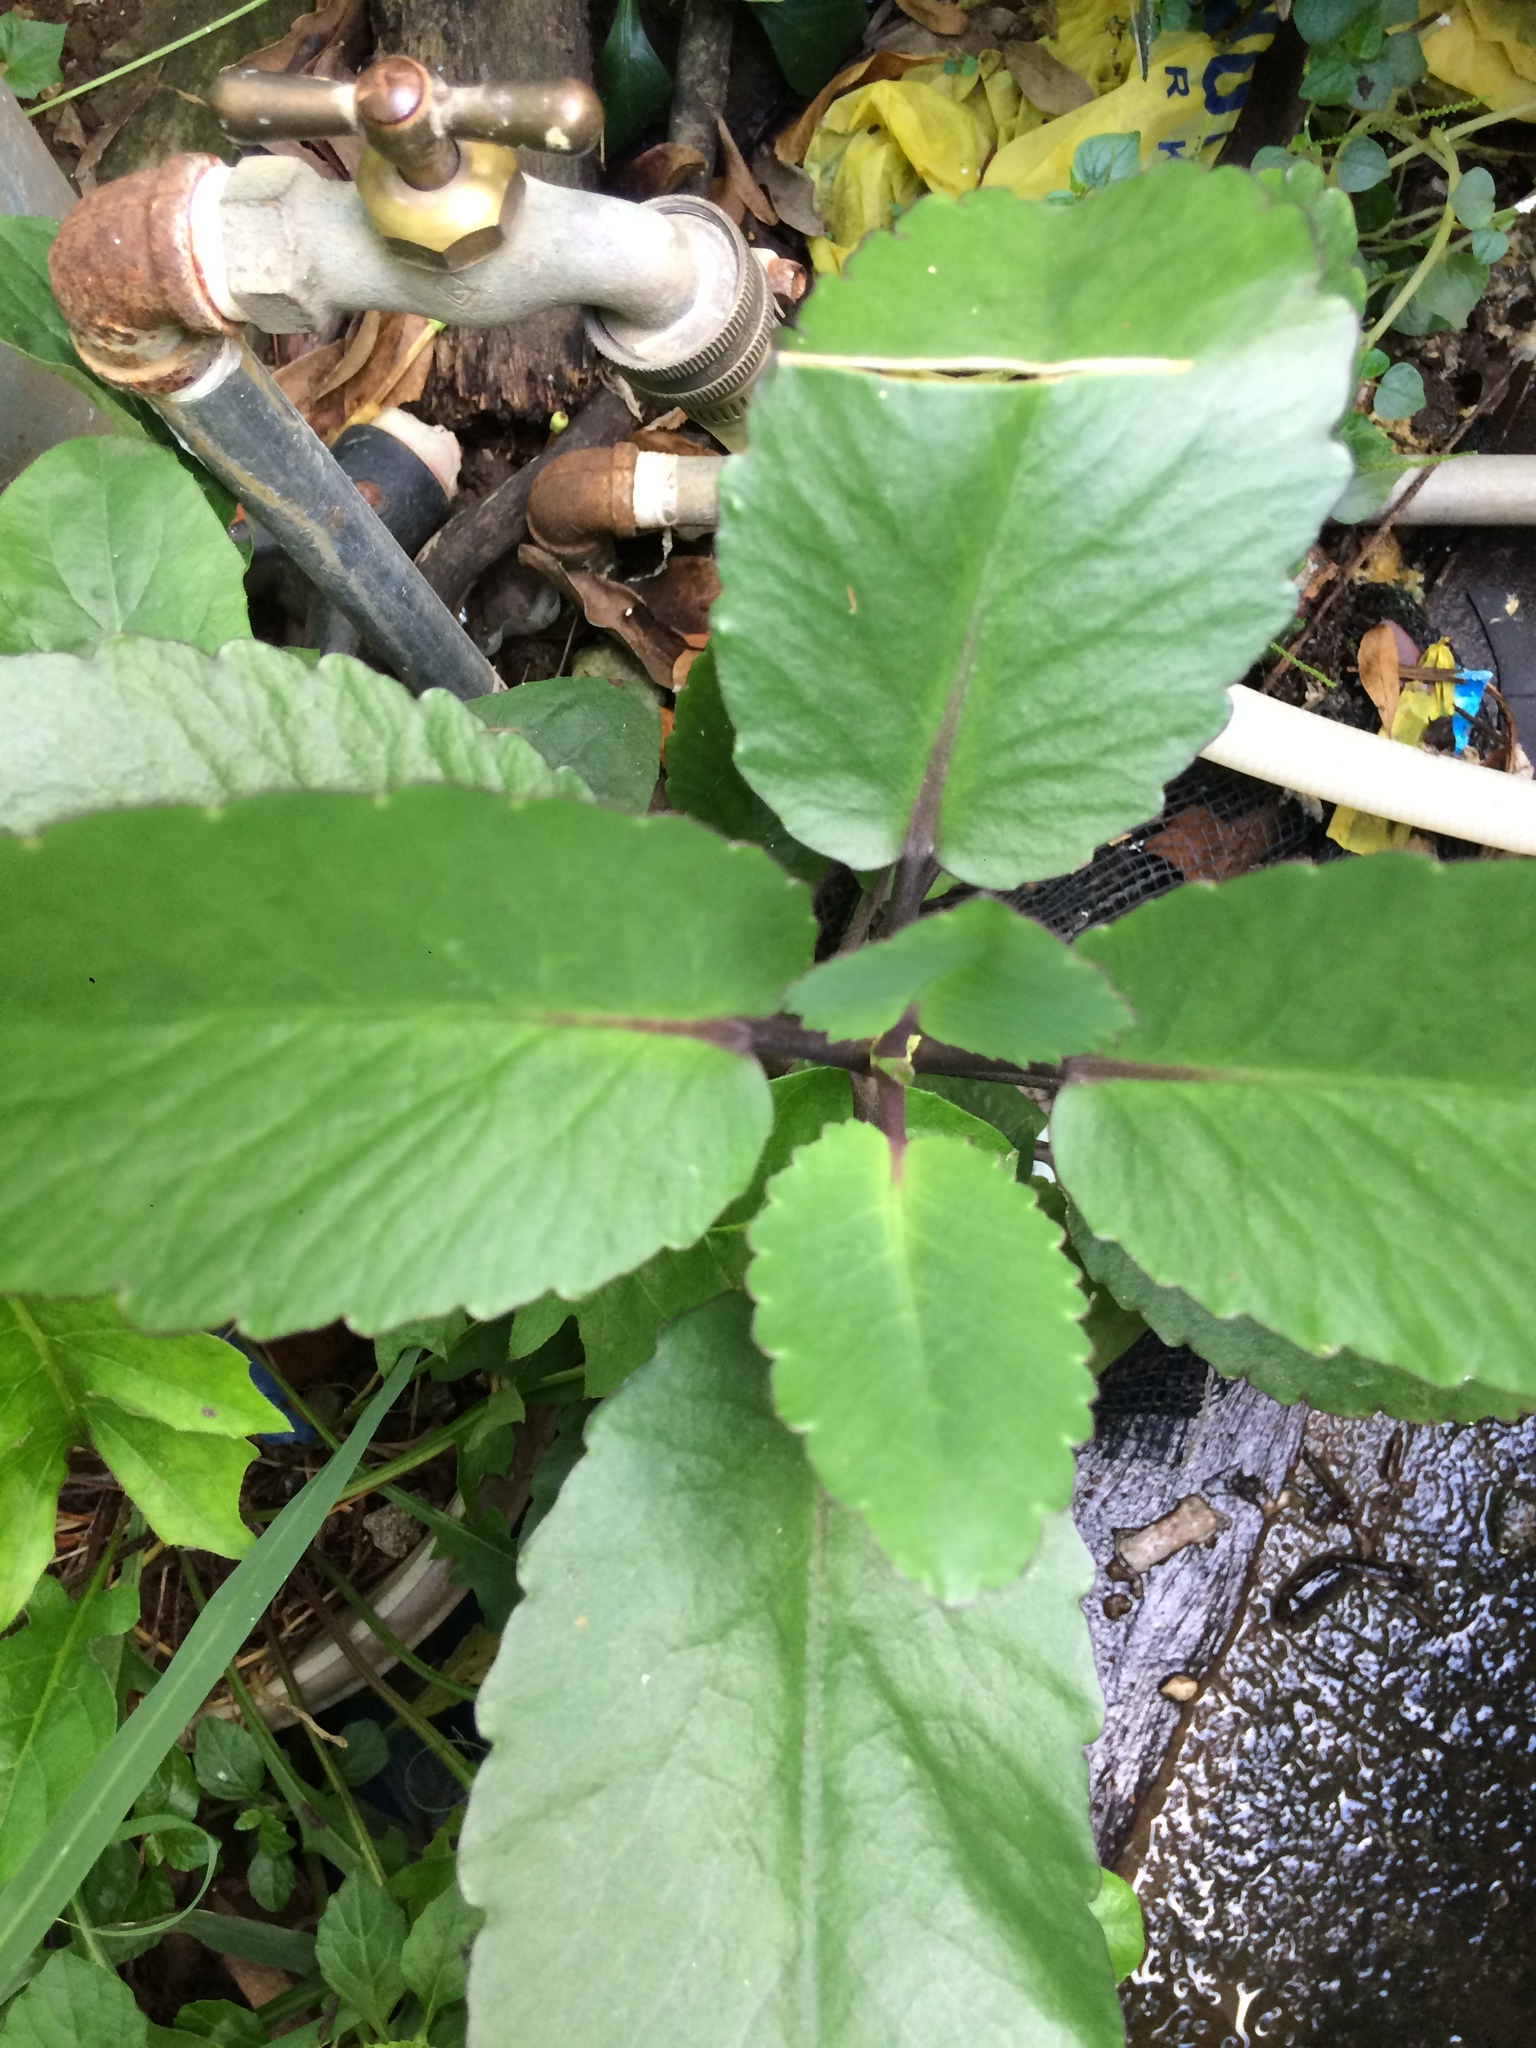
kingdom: Plantae
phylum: Tracheophyta
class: Magnoliopsida
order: Saxifragales
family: Crassulaceae
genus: Kalanchoe
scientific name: Kalanchoe pinnata
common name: Cathedral bells
